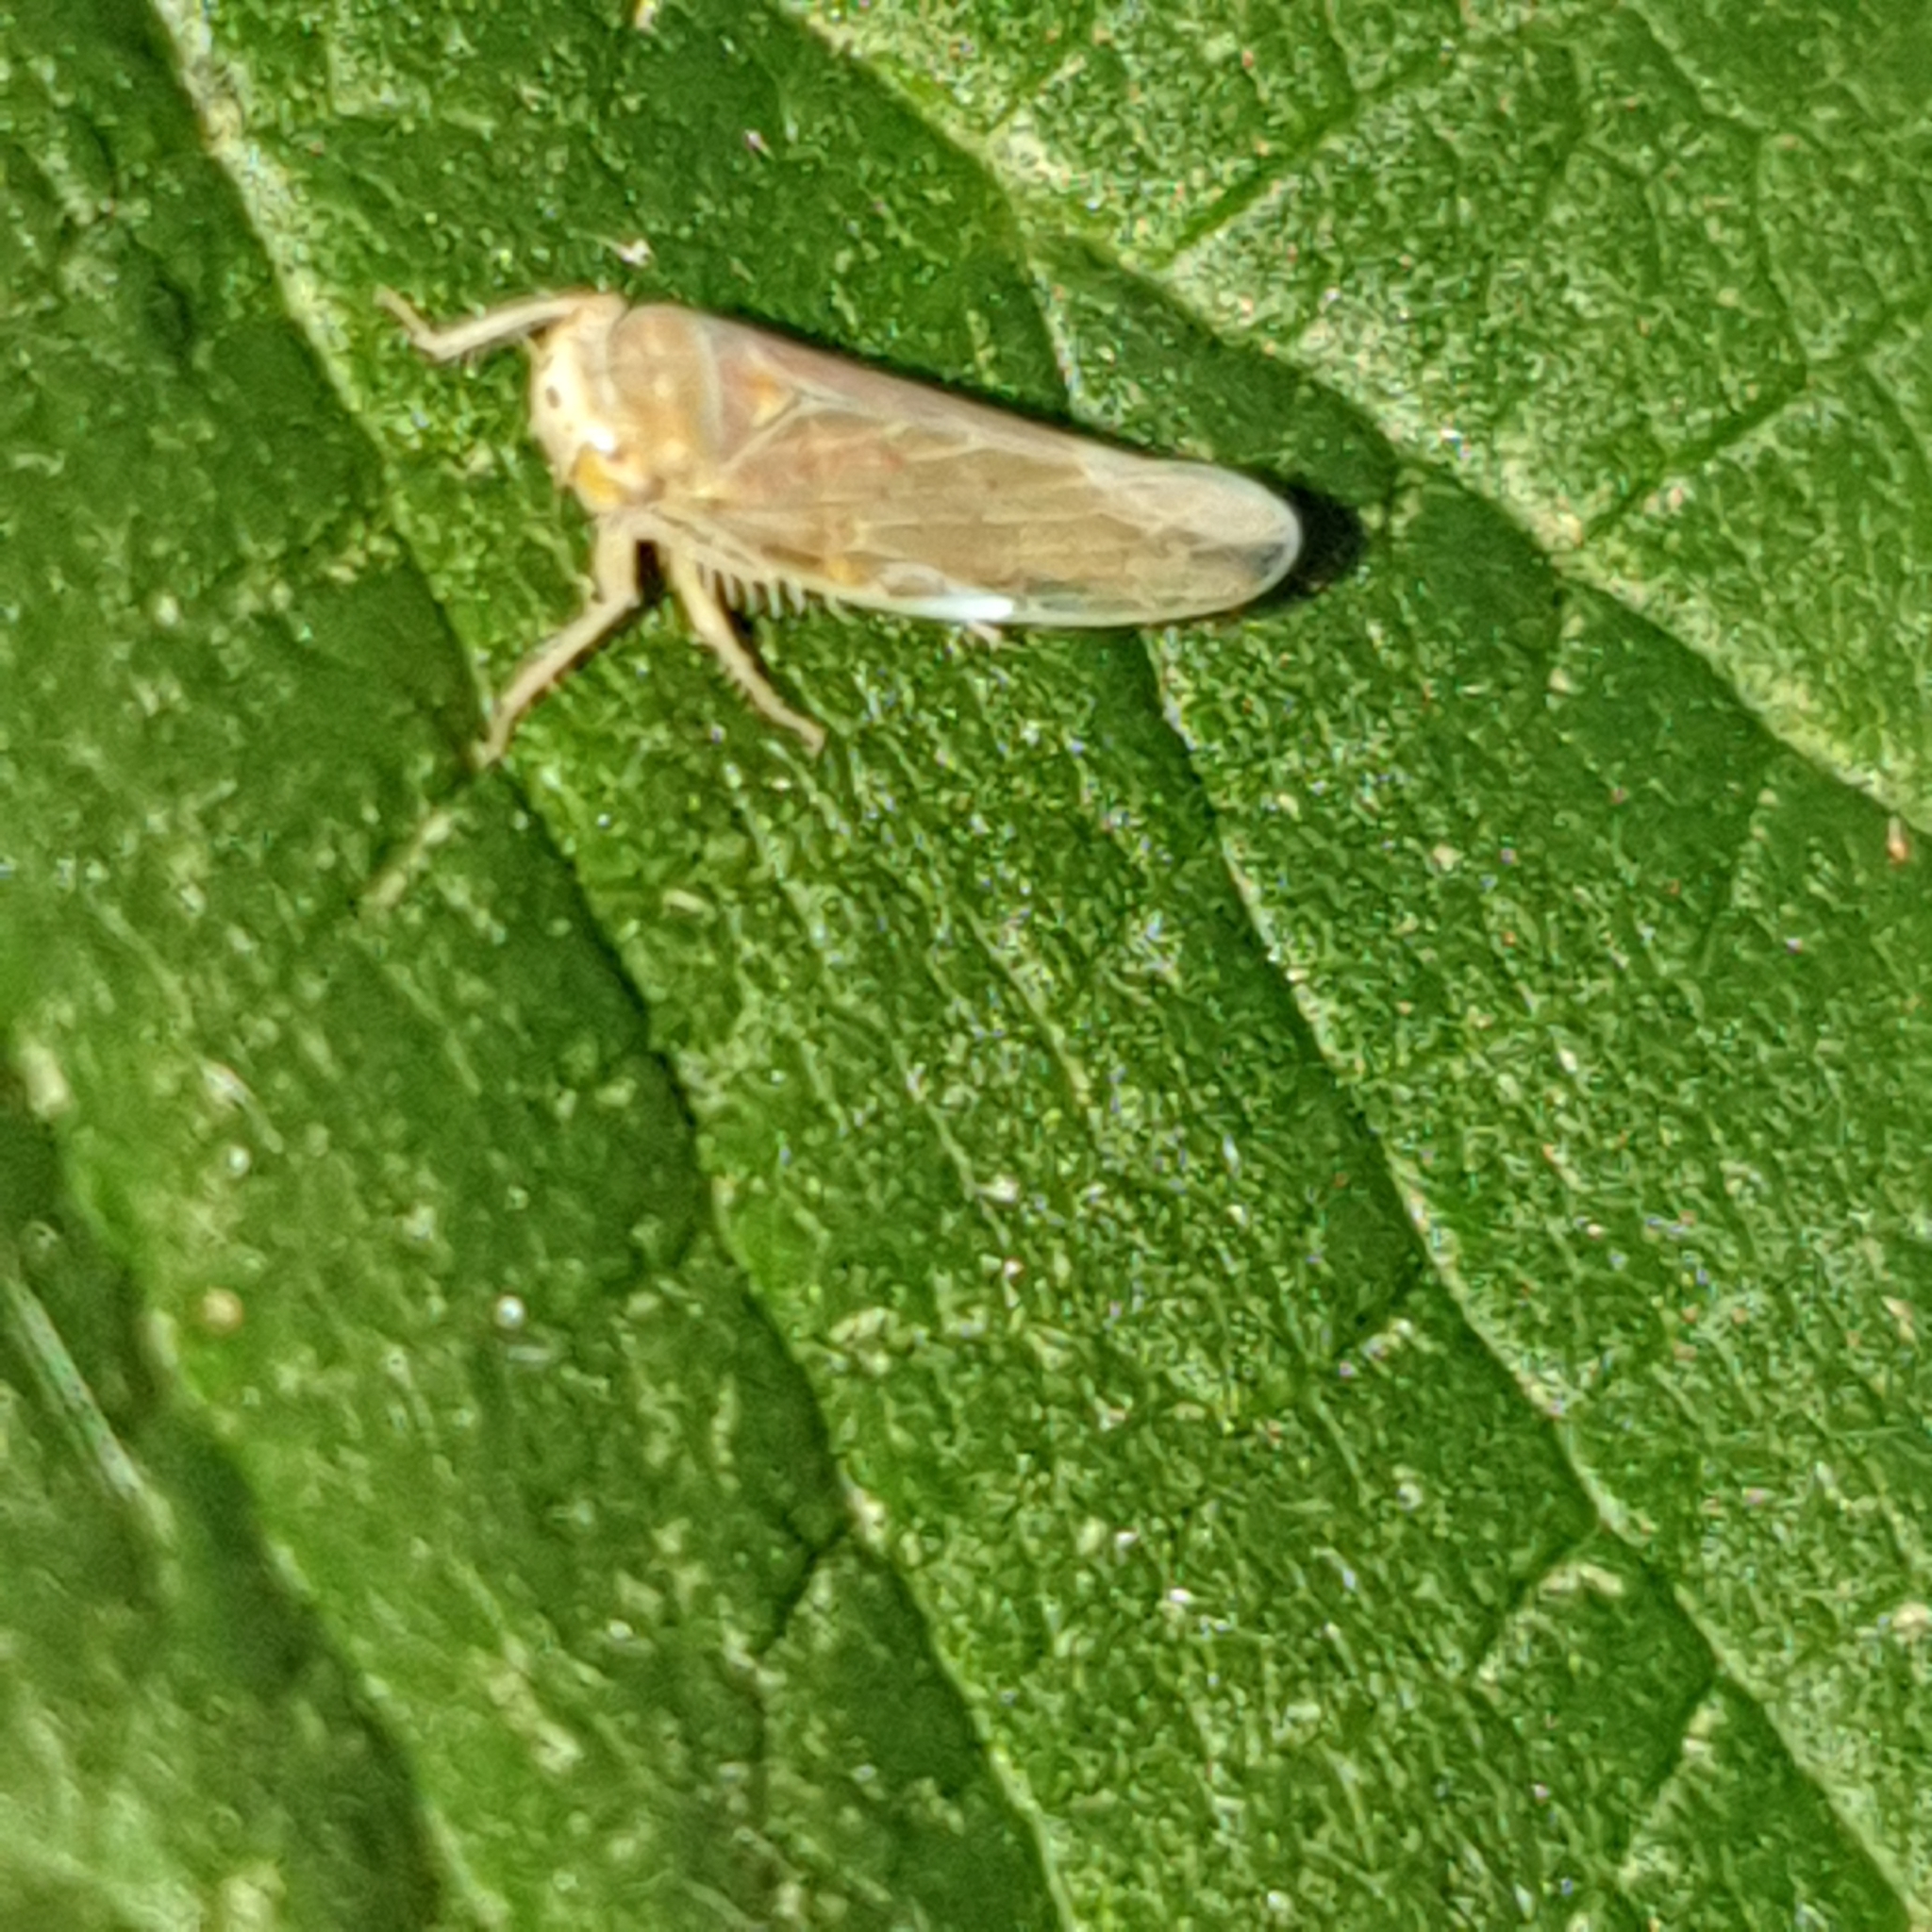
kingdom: Animalia
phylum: Arthropoda
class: Insecta
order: Hemiptera
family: Cicadellidae
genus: Idiodonus
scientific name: Idiodonus cruentatus
